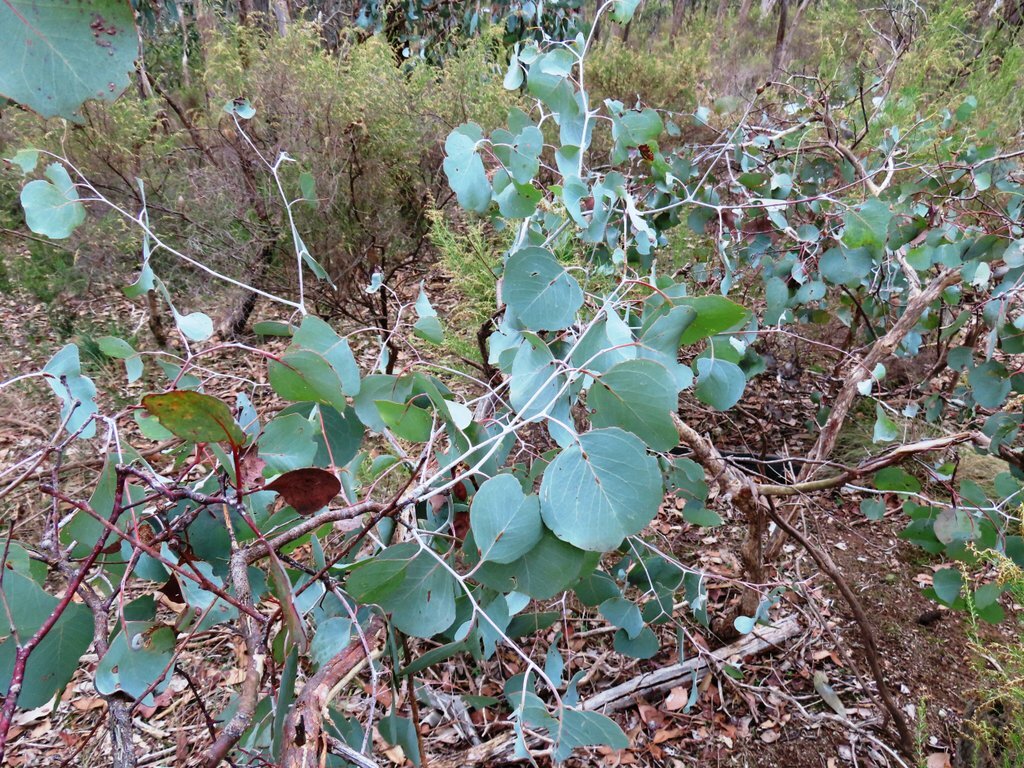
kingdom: Plantae
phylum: Tracheophyta
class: Magnoliopsida
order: Myrtales
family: Myrtaceae
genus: Eucalyptus
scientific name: Eucalyptus polyanthemos
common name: Red-box
